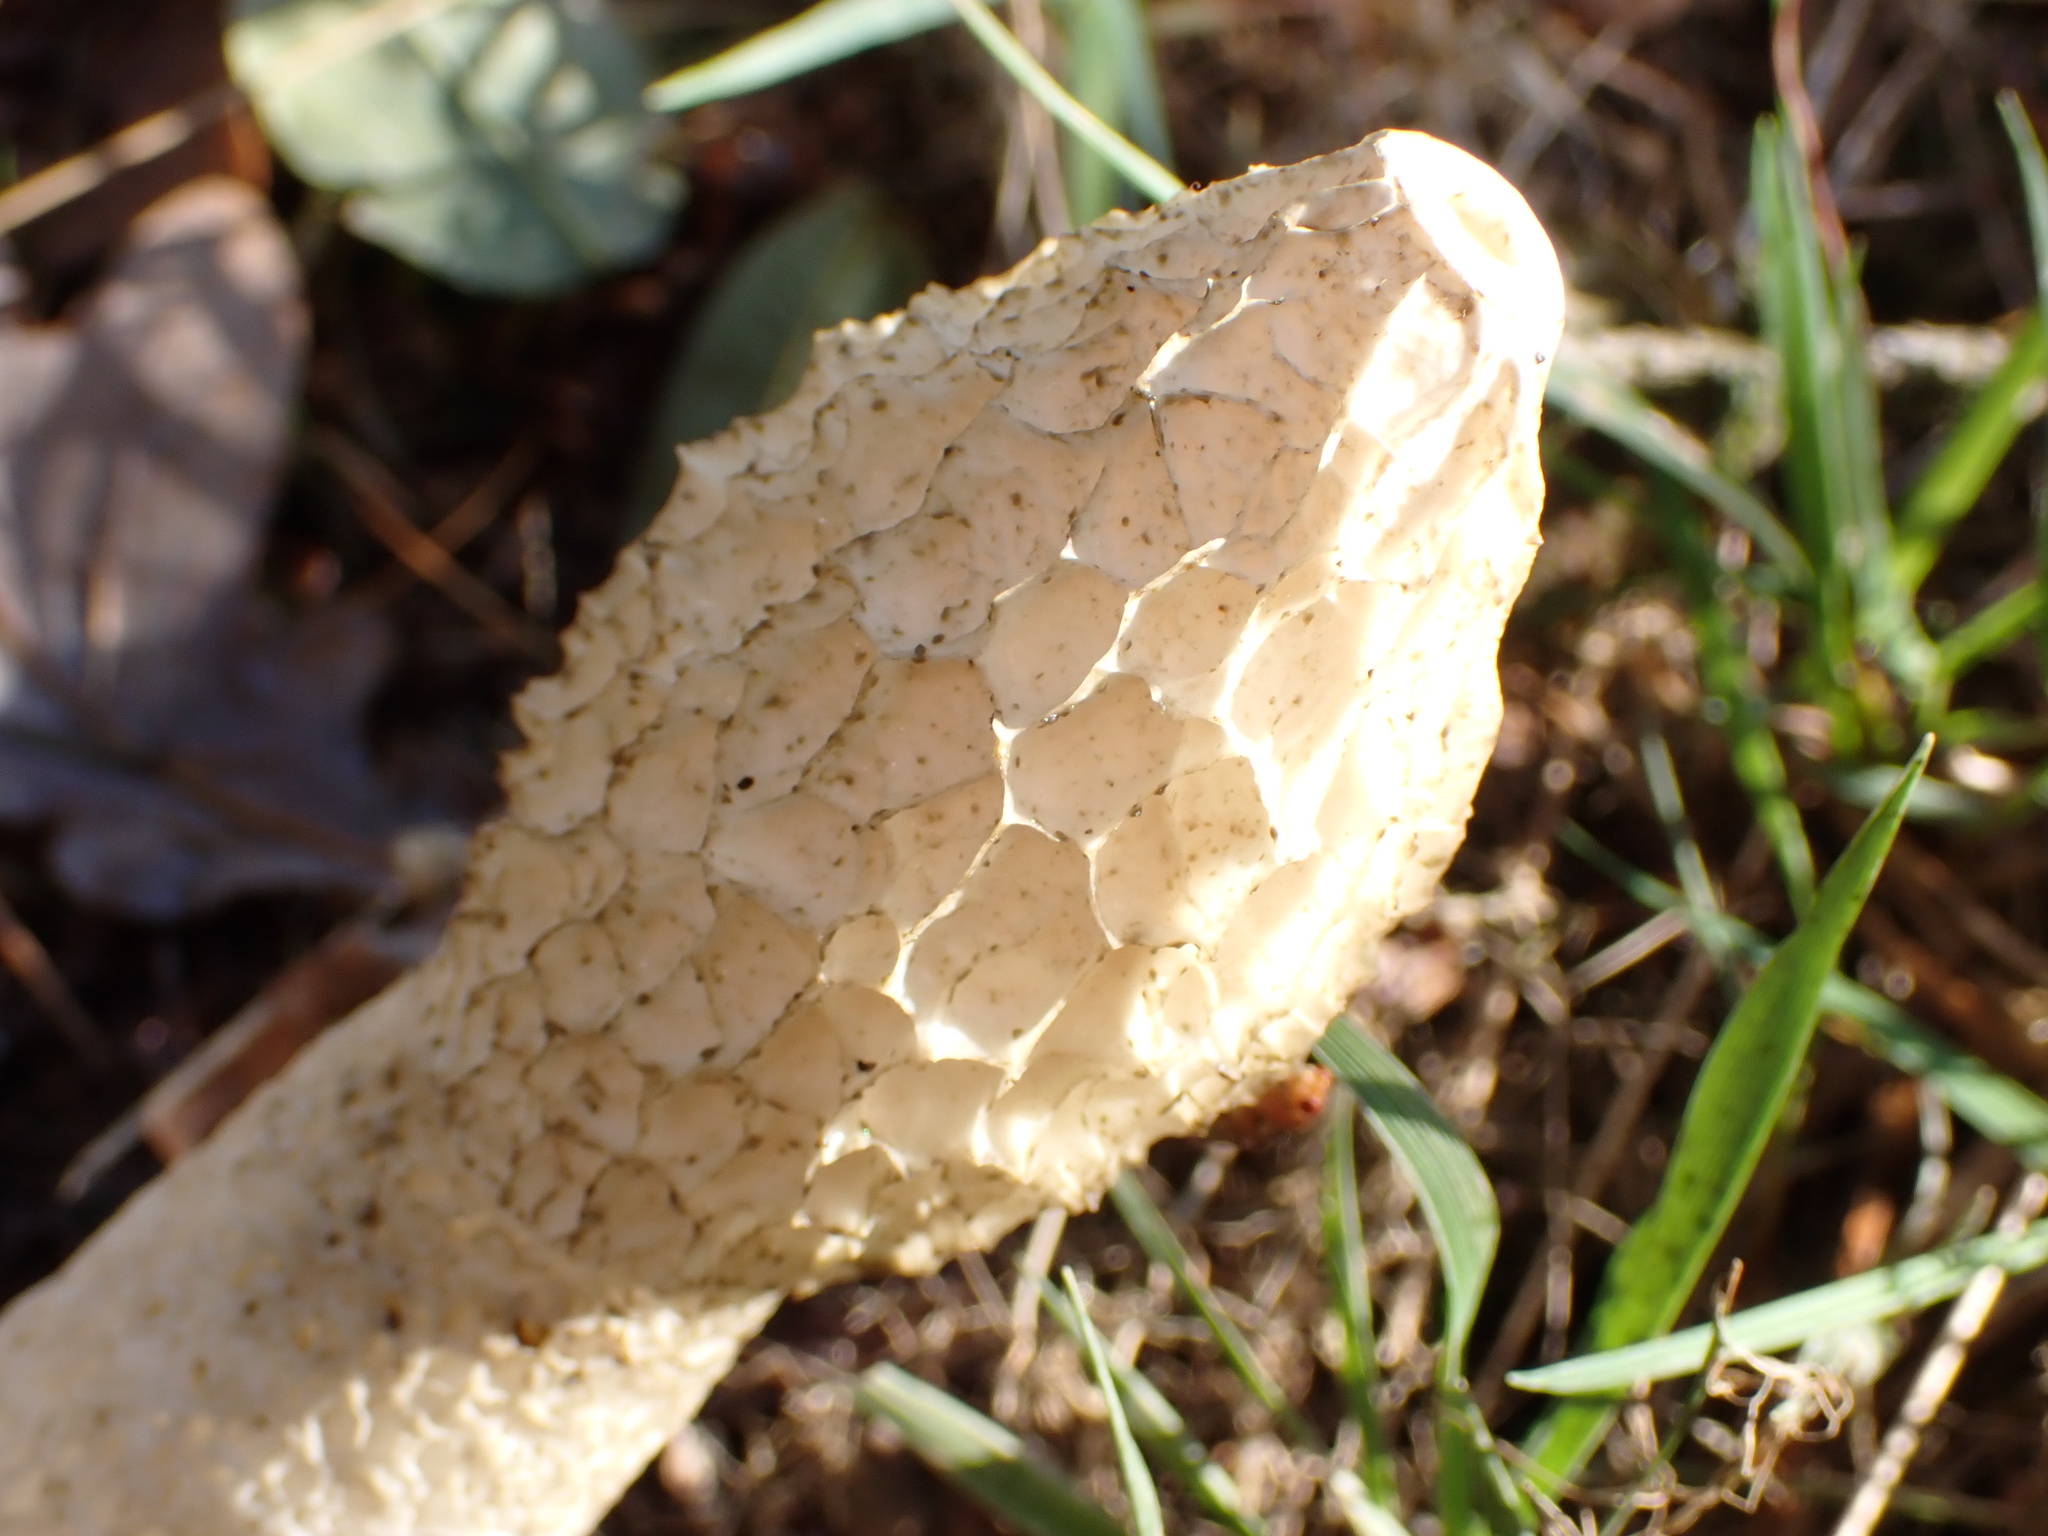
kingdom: Fungi
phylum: Basidiomycota
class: Agaricomycetes
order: Phallales
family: Phallaceae
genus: Phallus
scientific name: Phallus impudicus
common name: Common stinkhorn
